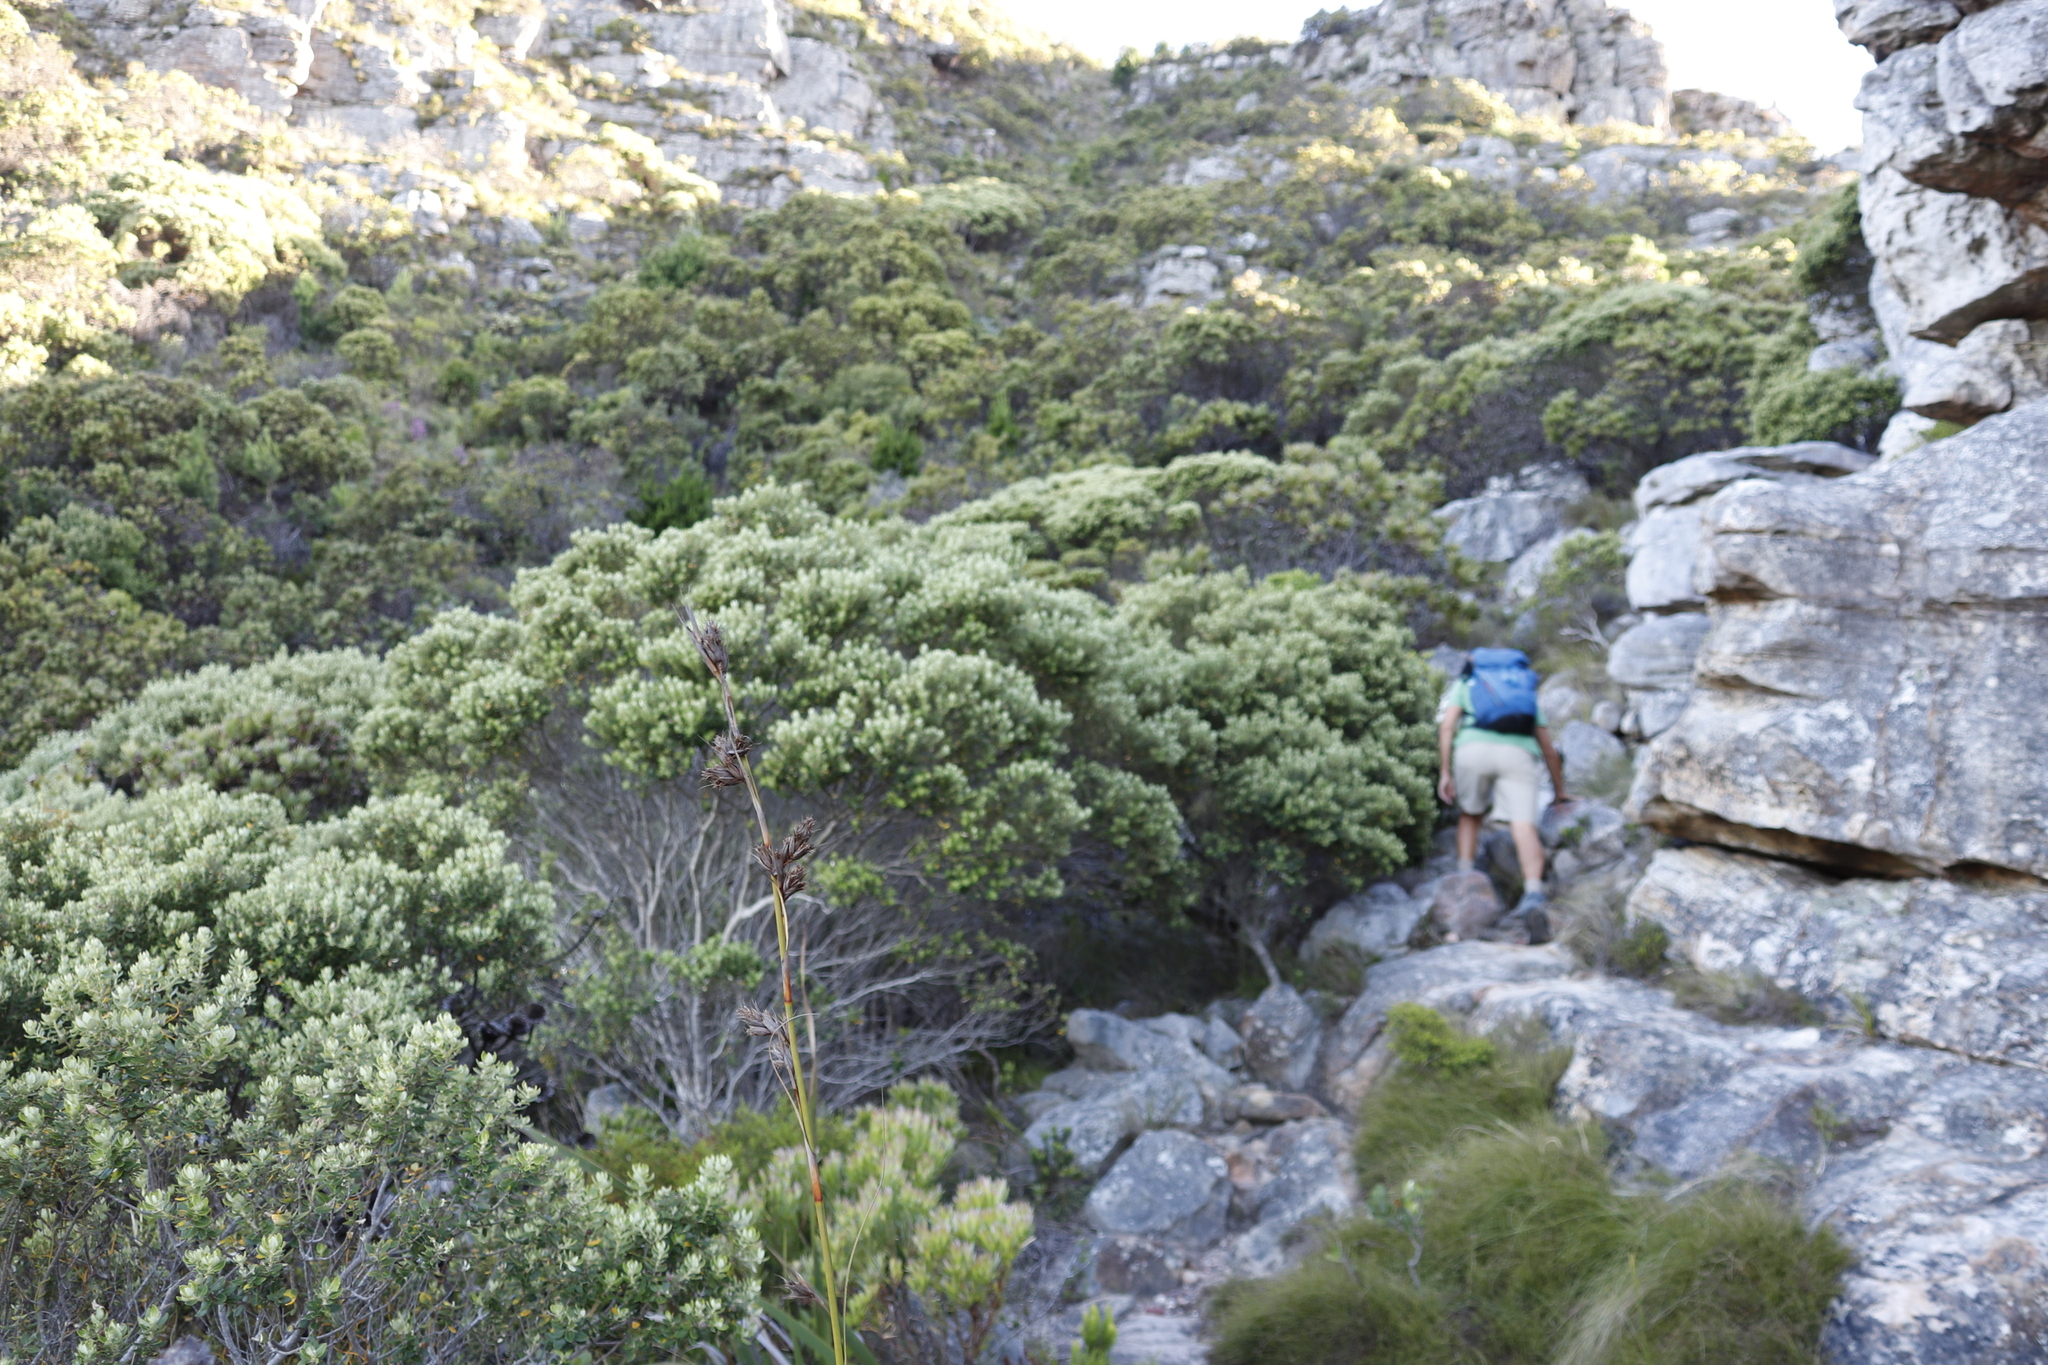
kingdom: Plantae
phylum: Tracheophyta
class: Magnoliopsida
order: Rosales
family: Rhamnaceae
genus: Phylica
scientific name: Phylica buxifolia
